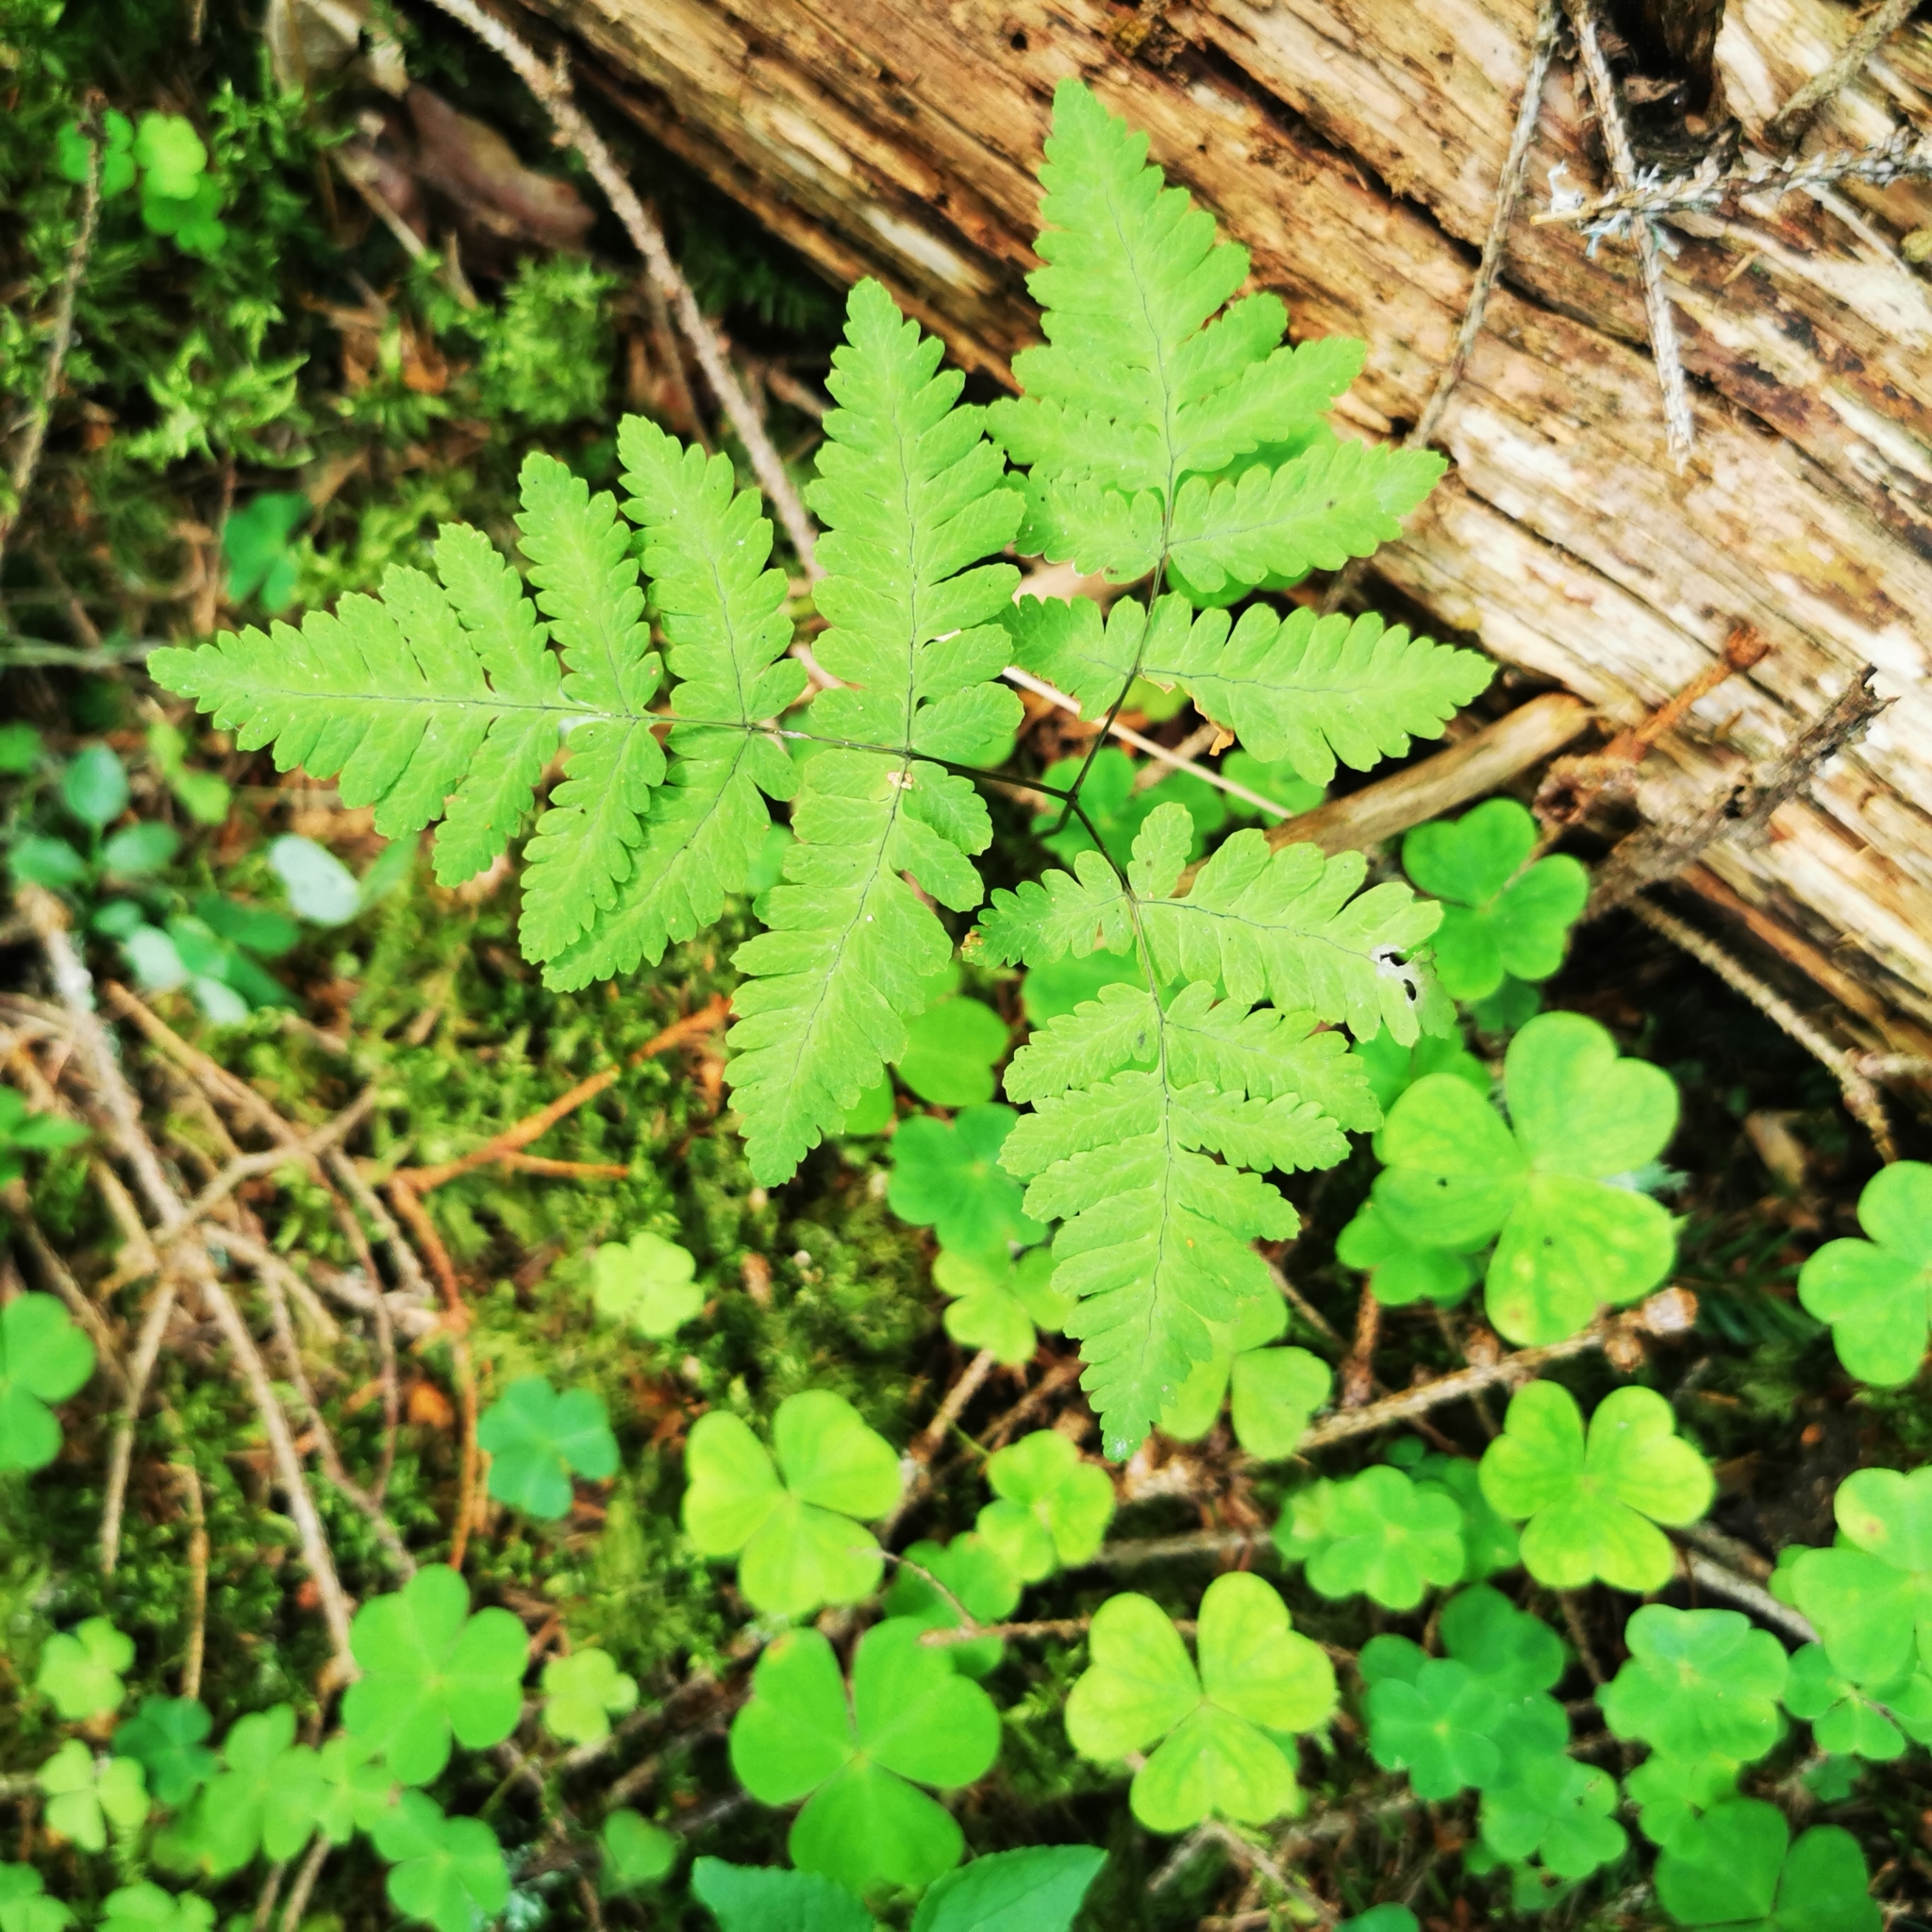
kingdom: Plantae
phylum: Tracheophyta
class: Polypodiopsida
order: Polypodiales
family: Cystopteridaceae
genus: Gymnocarpium
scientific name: Gymnocarpium dryopteris
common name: Oak fern
